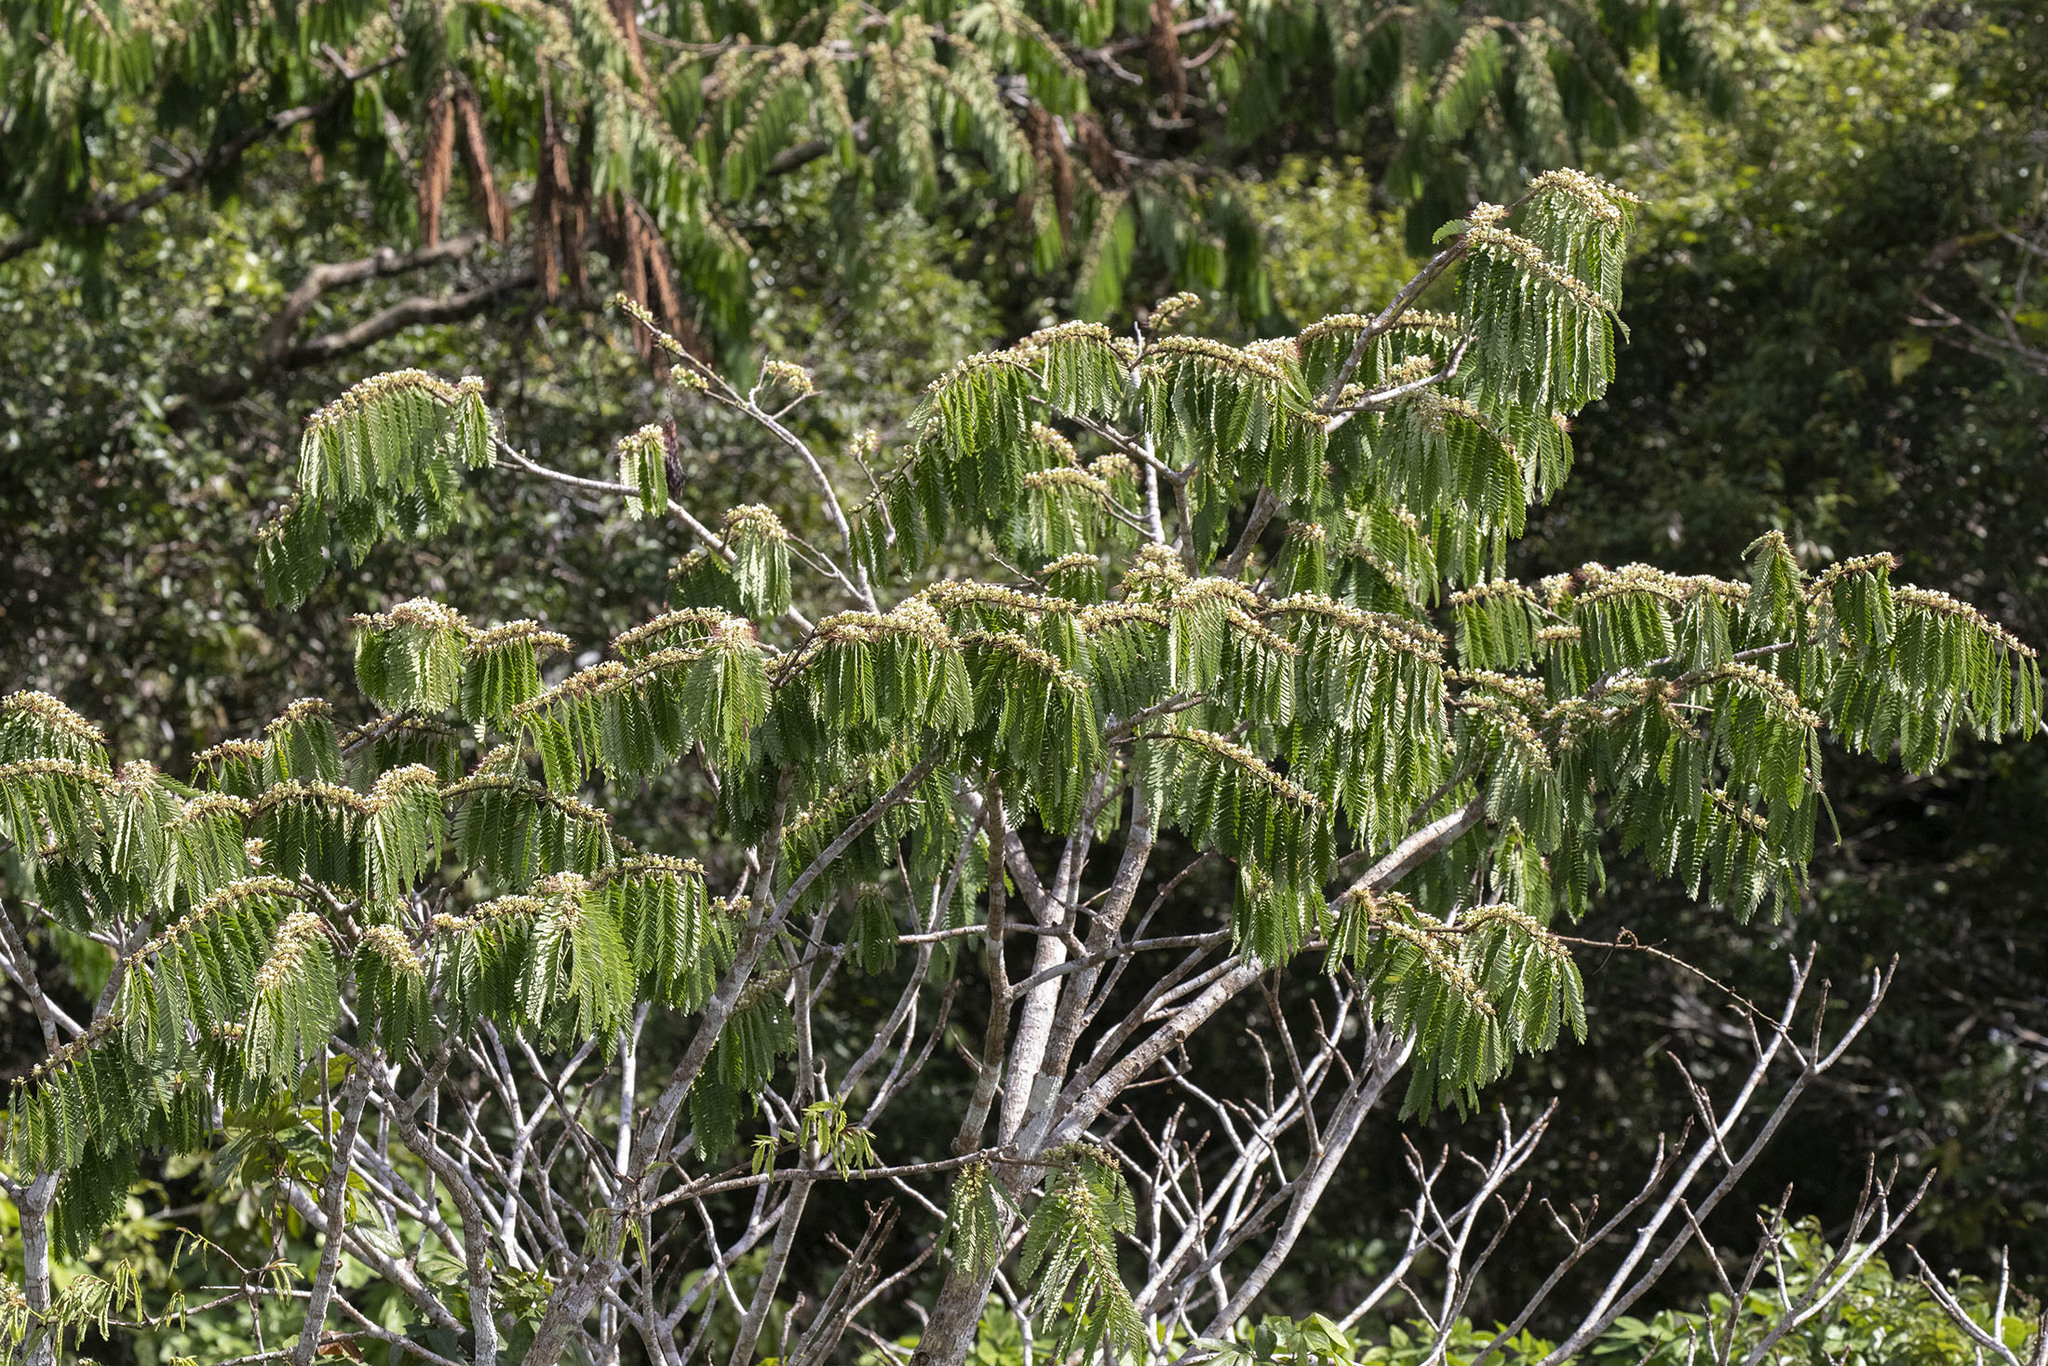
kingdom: Plantae
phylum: Tracheophyta
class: Magnoliopsida
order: Fabales
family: Fabaceae
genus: Macrolobium
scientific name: Macrolobium acaciifolium
